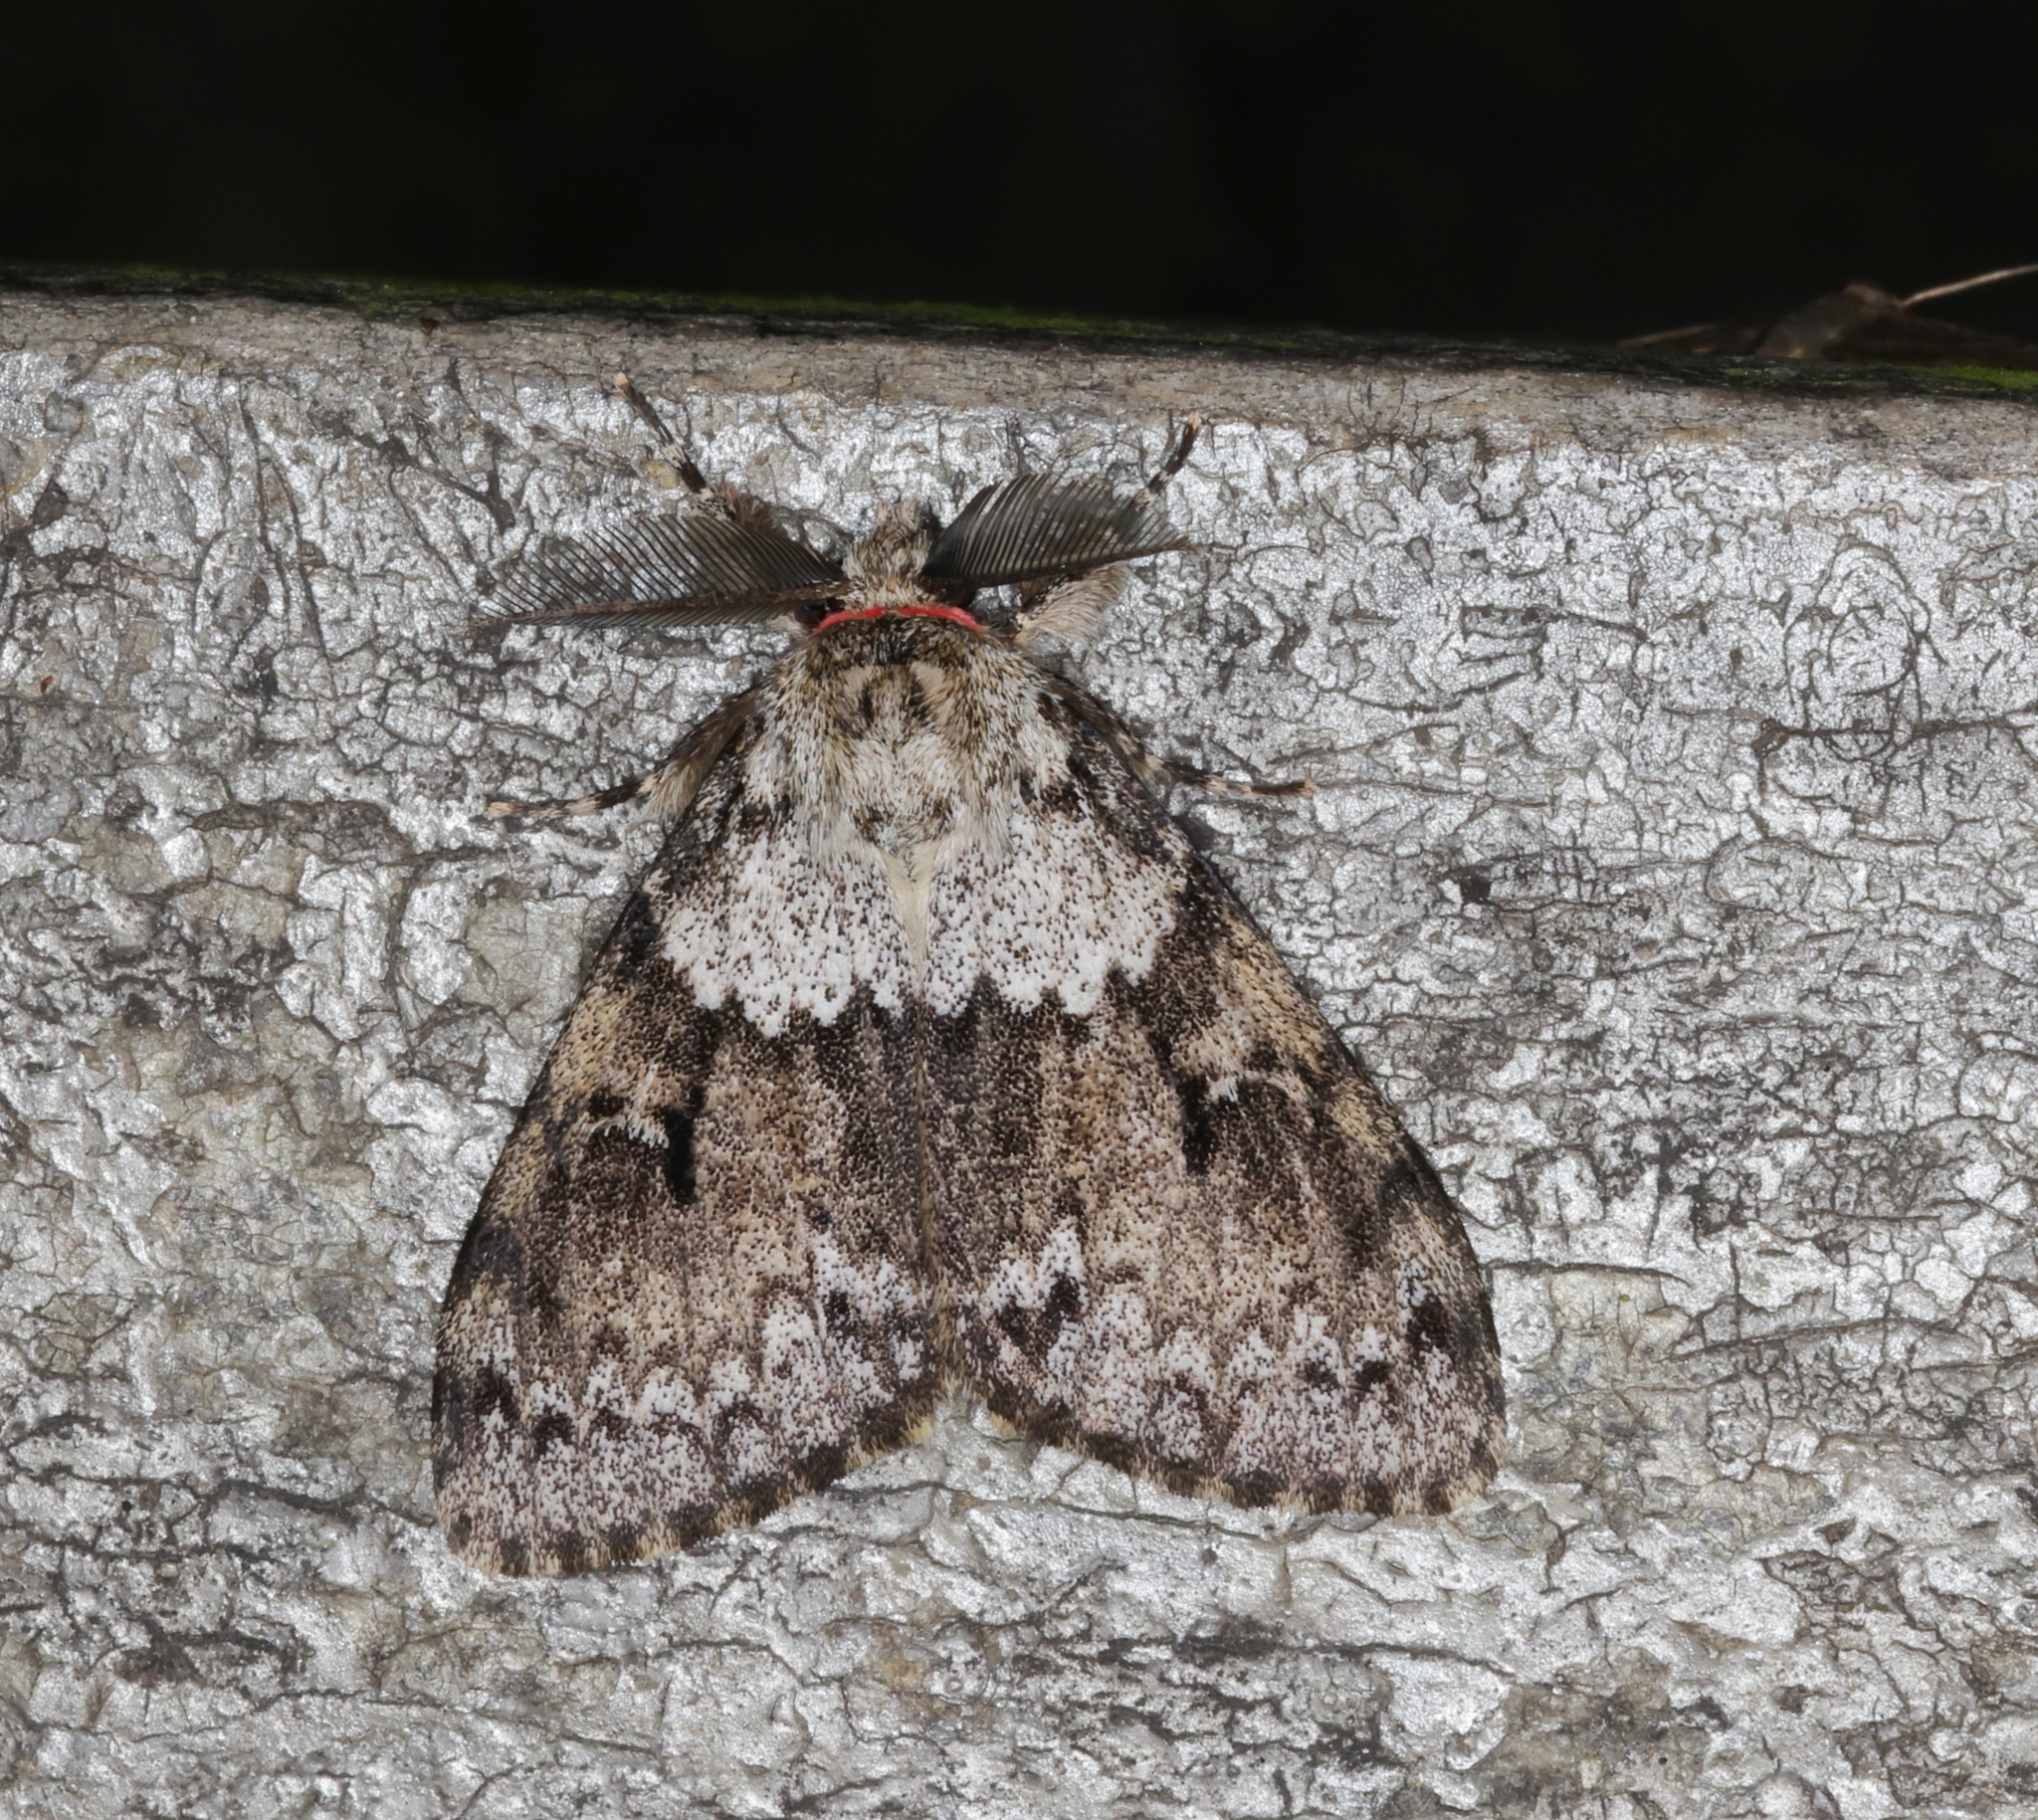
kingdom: Animalia
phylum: Arthropoda
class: Insecta
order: Lepidoptera
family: Erebidae
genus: Lymantria
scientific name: Lymantria sinica
